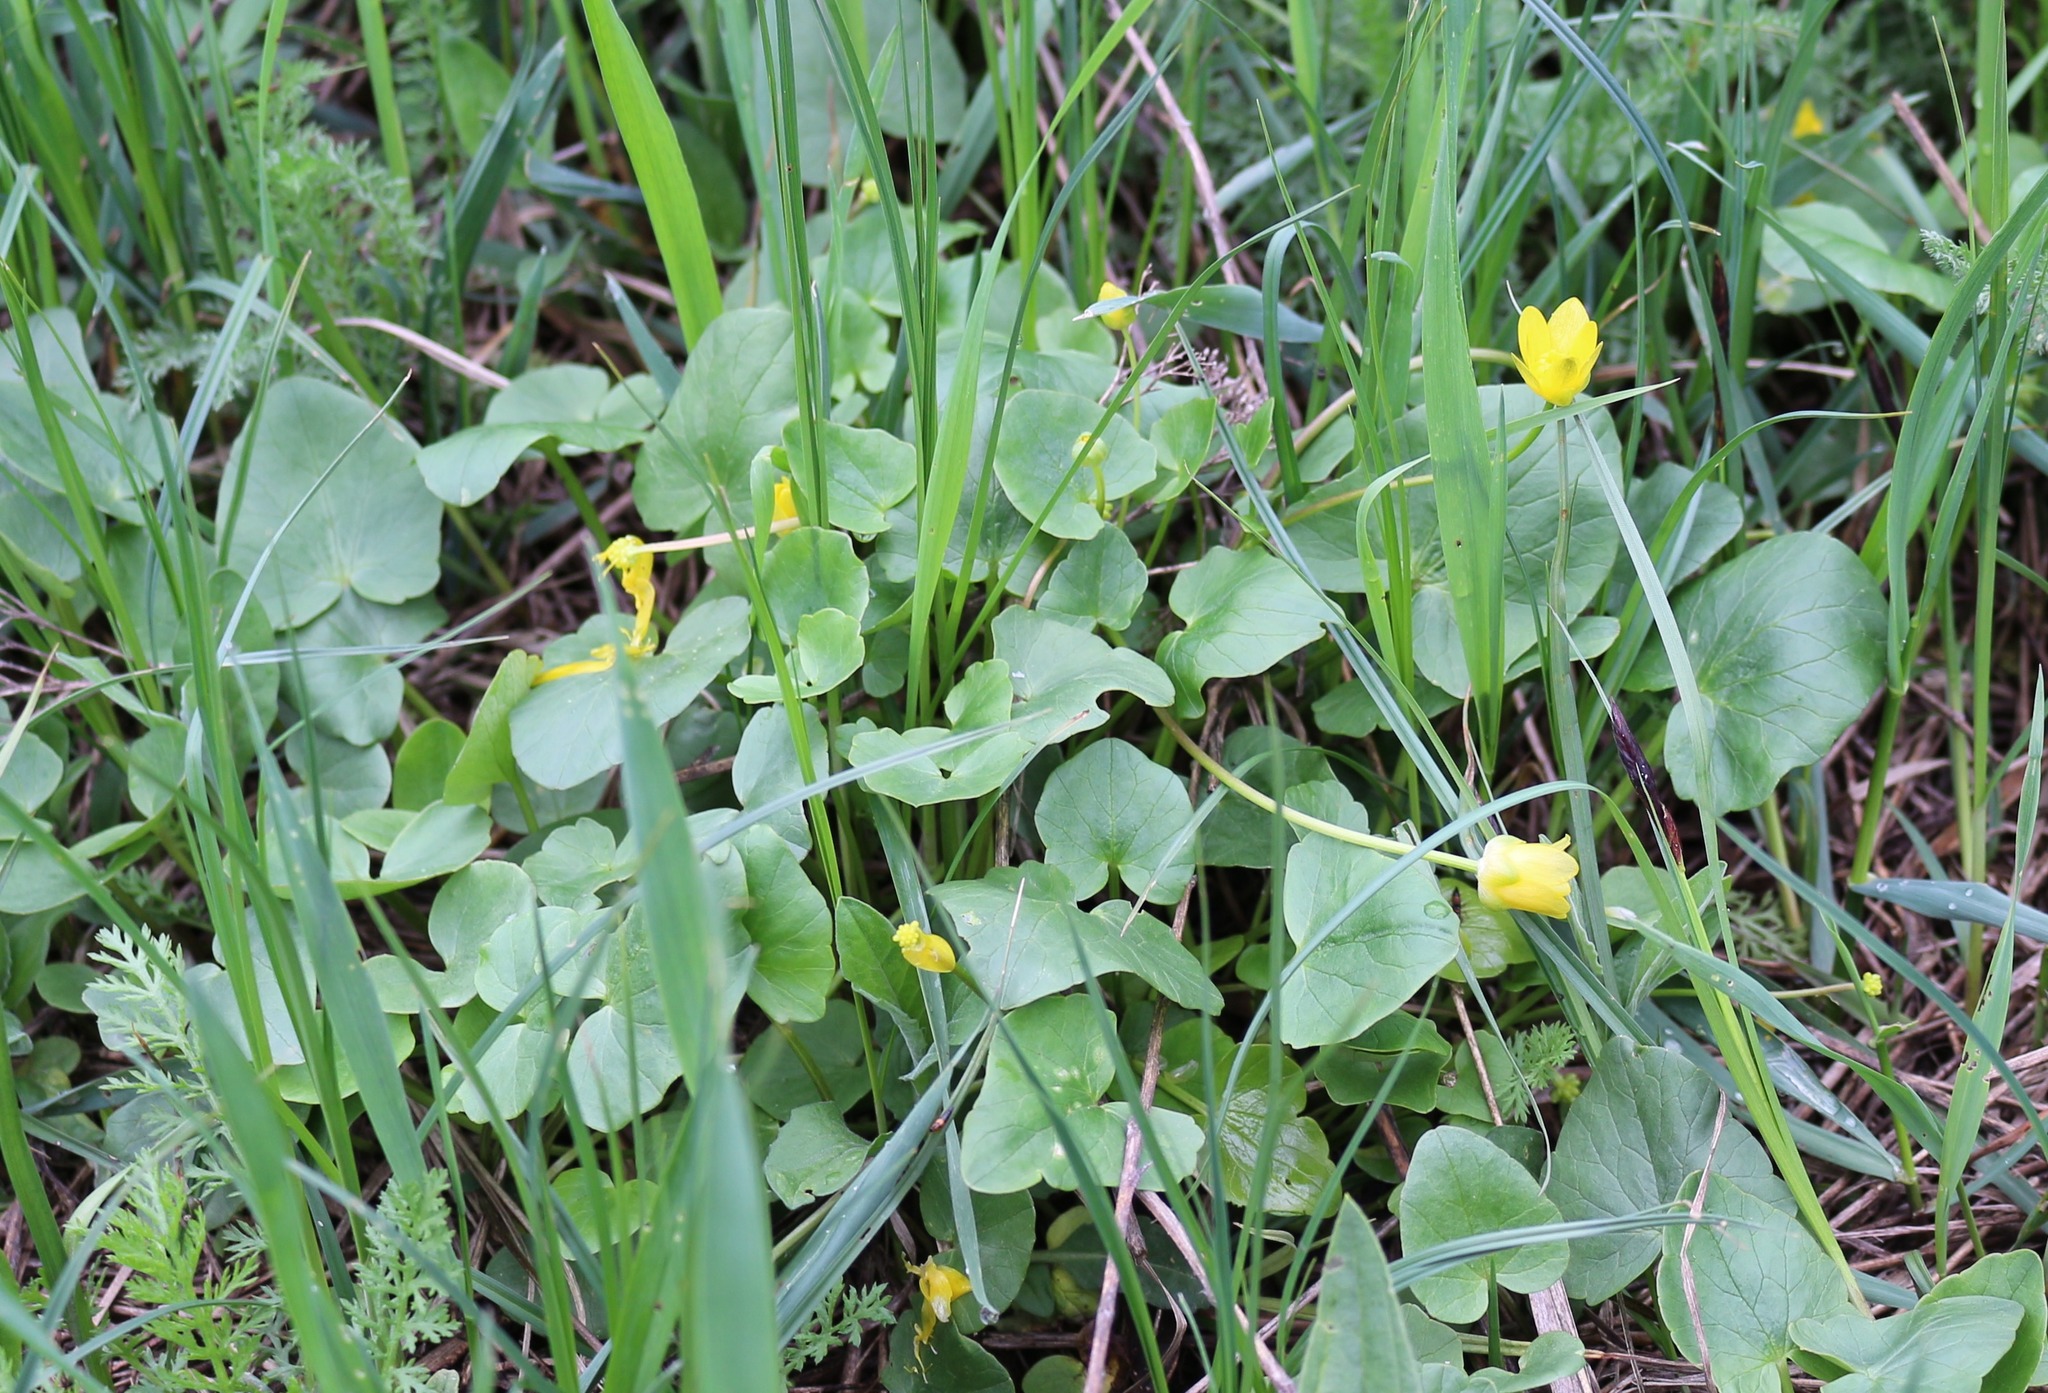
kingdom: Plantae
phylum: Tracheophyta
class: Magnoliopsida
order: Ranunculales
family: Ranunculaceae
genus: Ficaria
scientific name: Ficaria verna
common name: Lesser celandine
